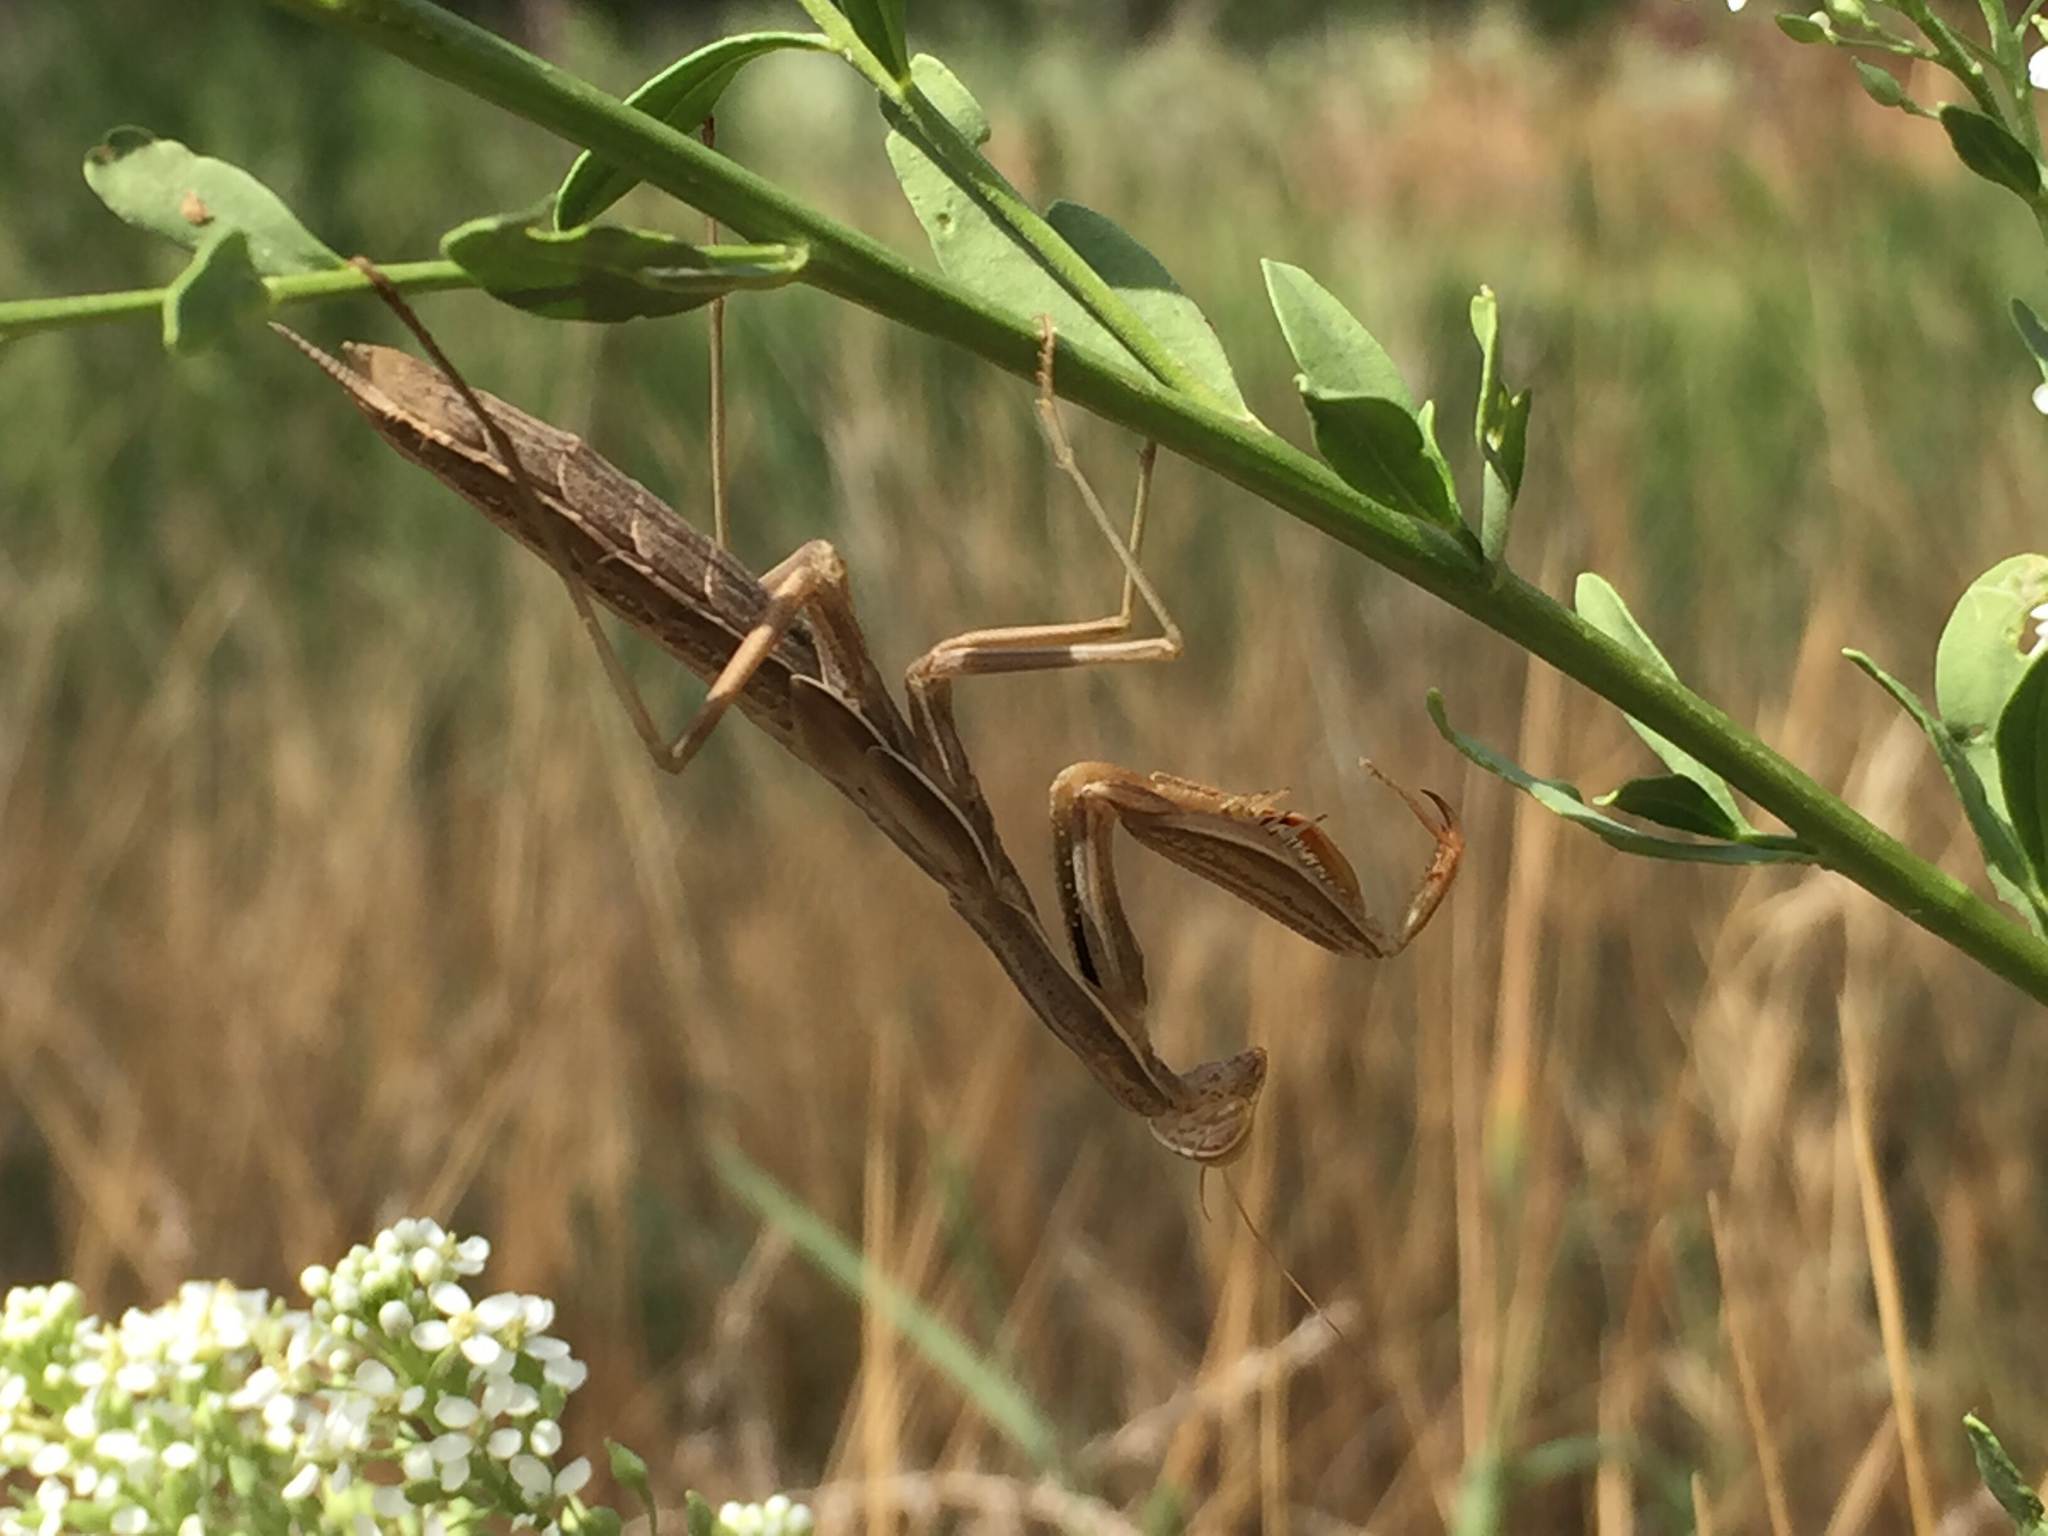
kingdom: Animalia
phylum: Arthropoda
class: Insecta
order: Mantodea
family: Mantidae
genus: Mantis
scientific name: Mantis religiosa
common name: Praying mantis
